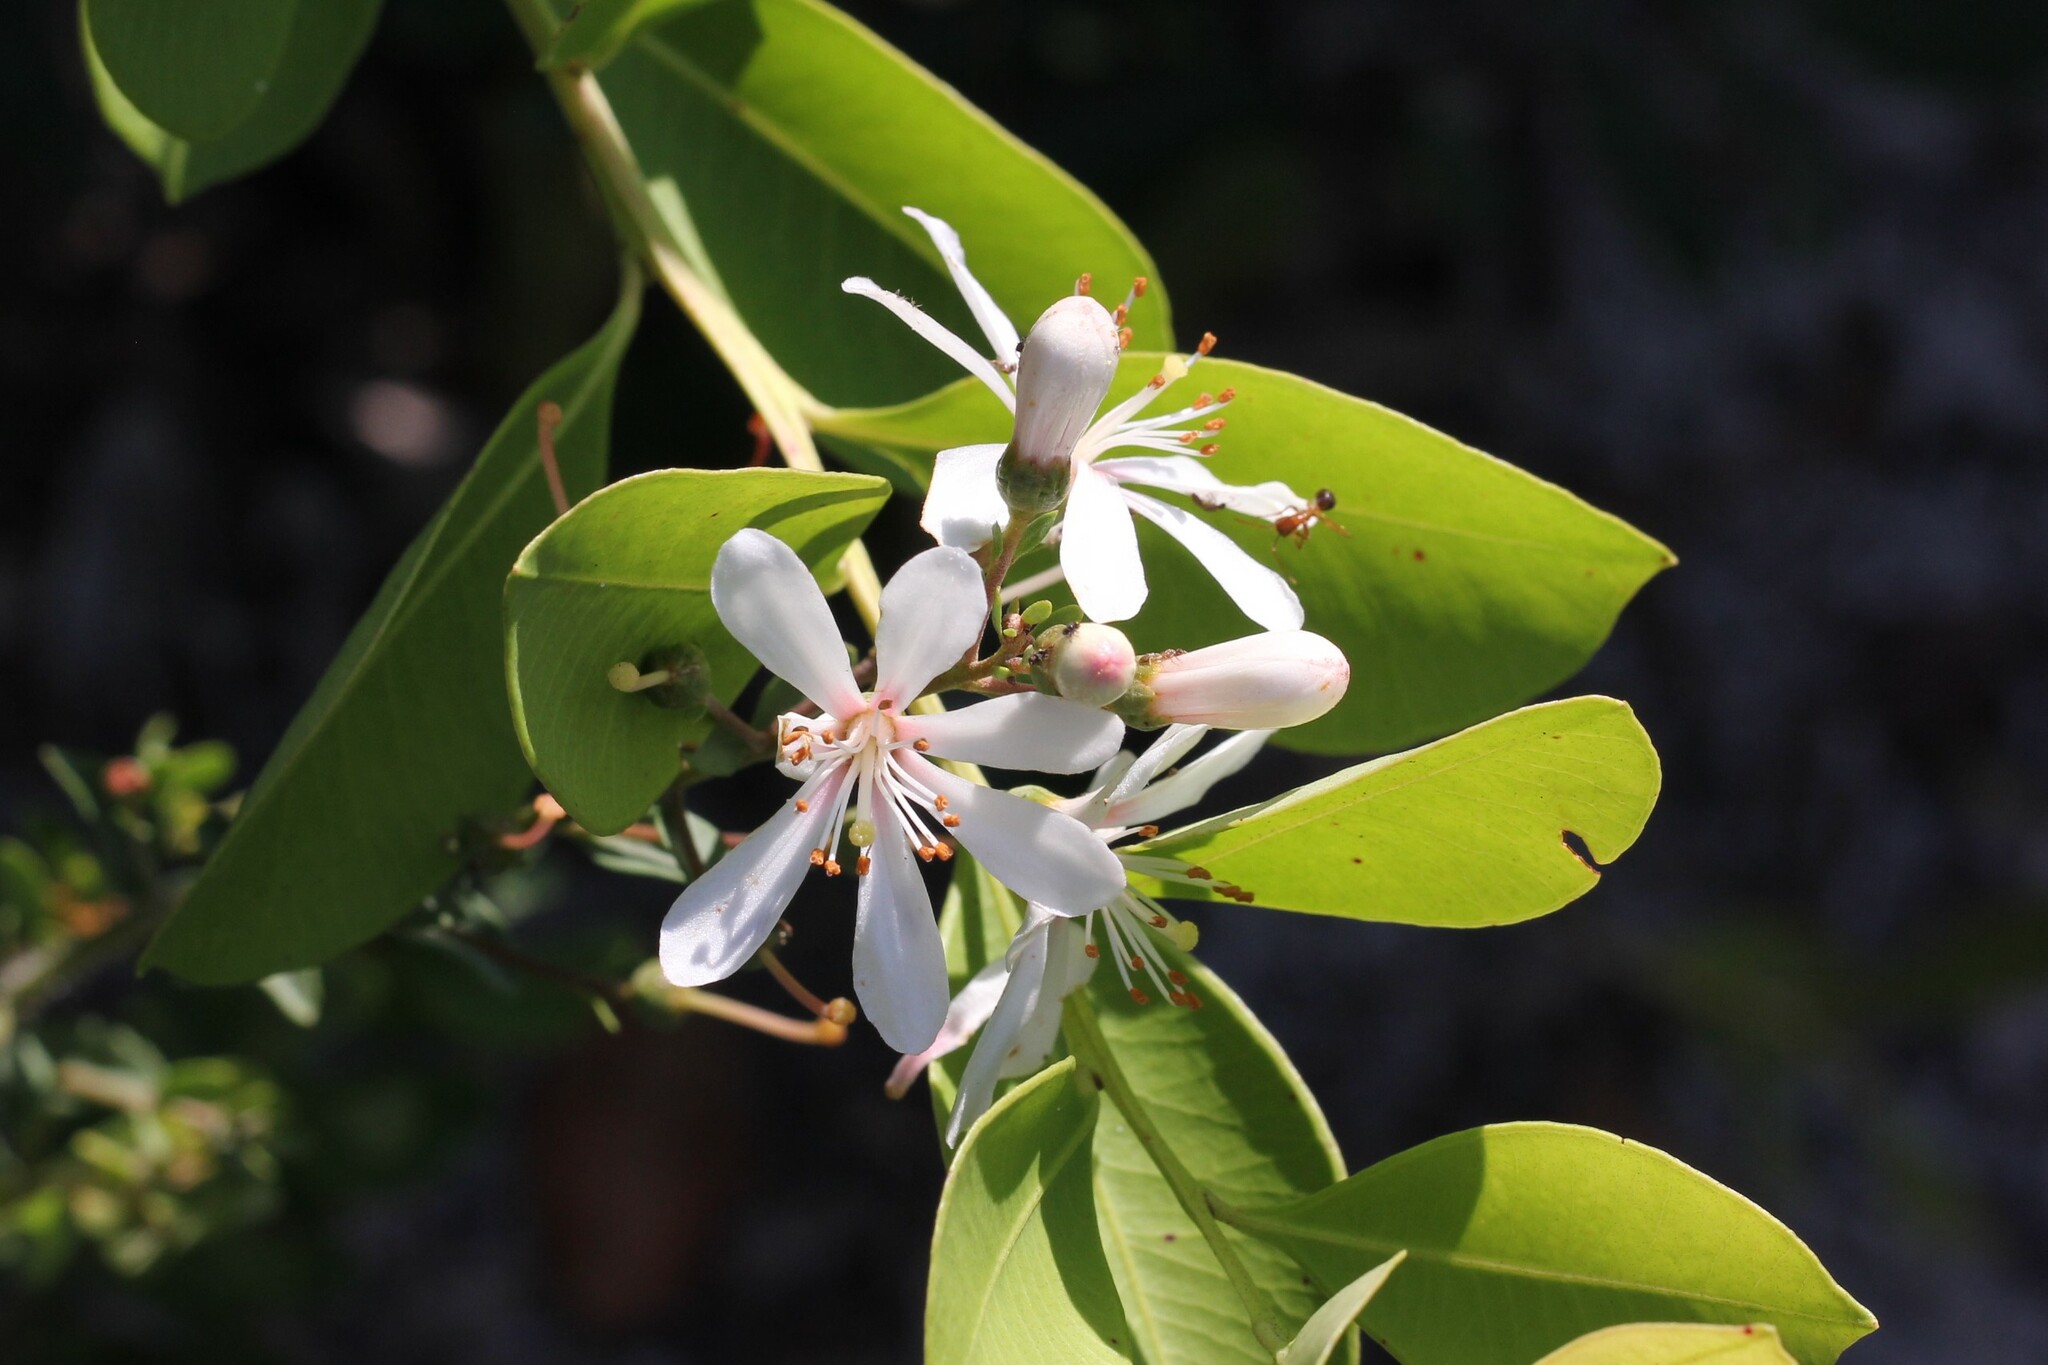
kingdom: Plantae
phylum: Tracheophyta
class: Magnoliopsida
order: Ericales
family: Ericaceae
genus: Bejaria
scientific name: Bejaria racemosa
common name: Tarflower
